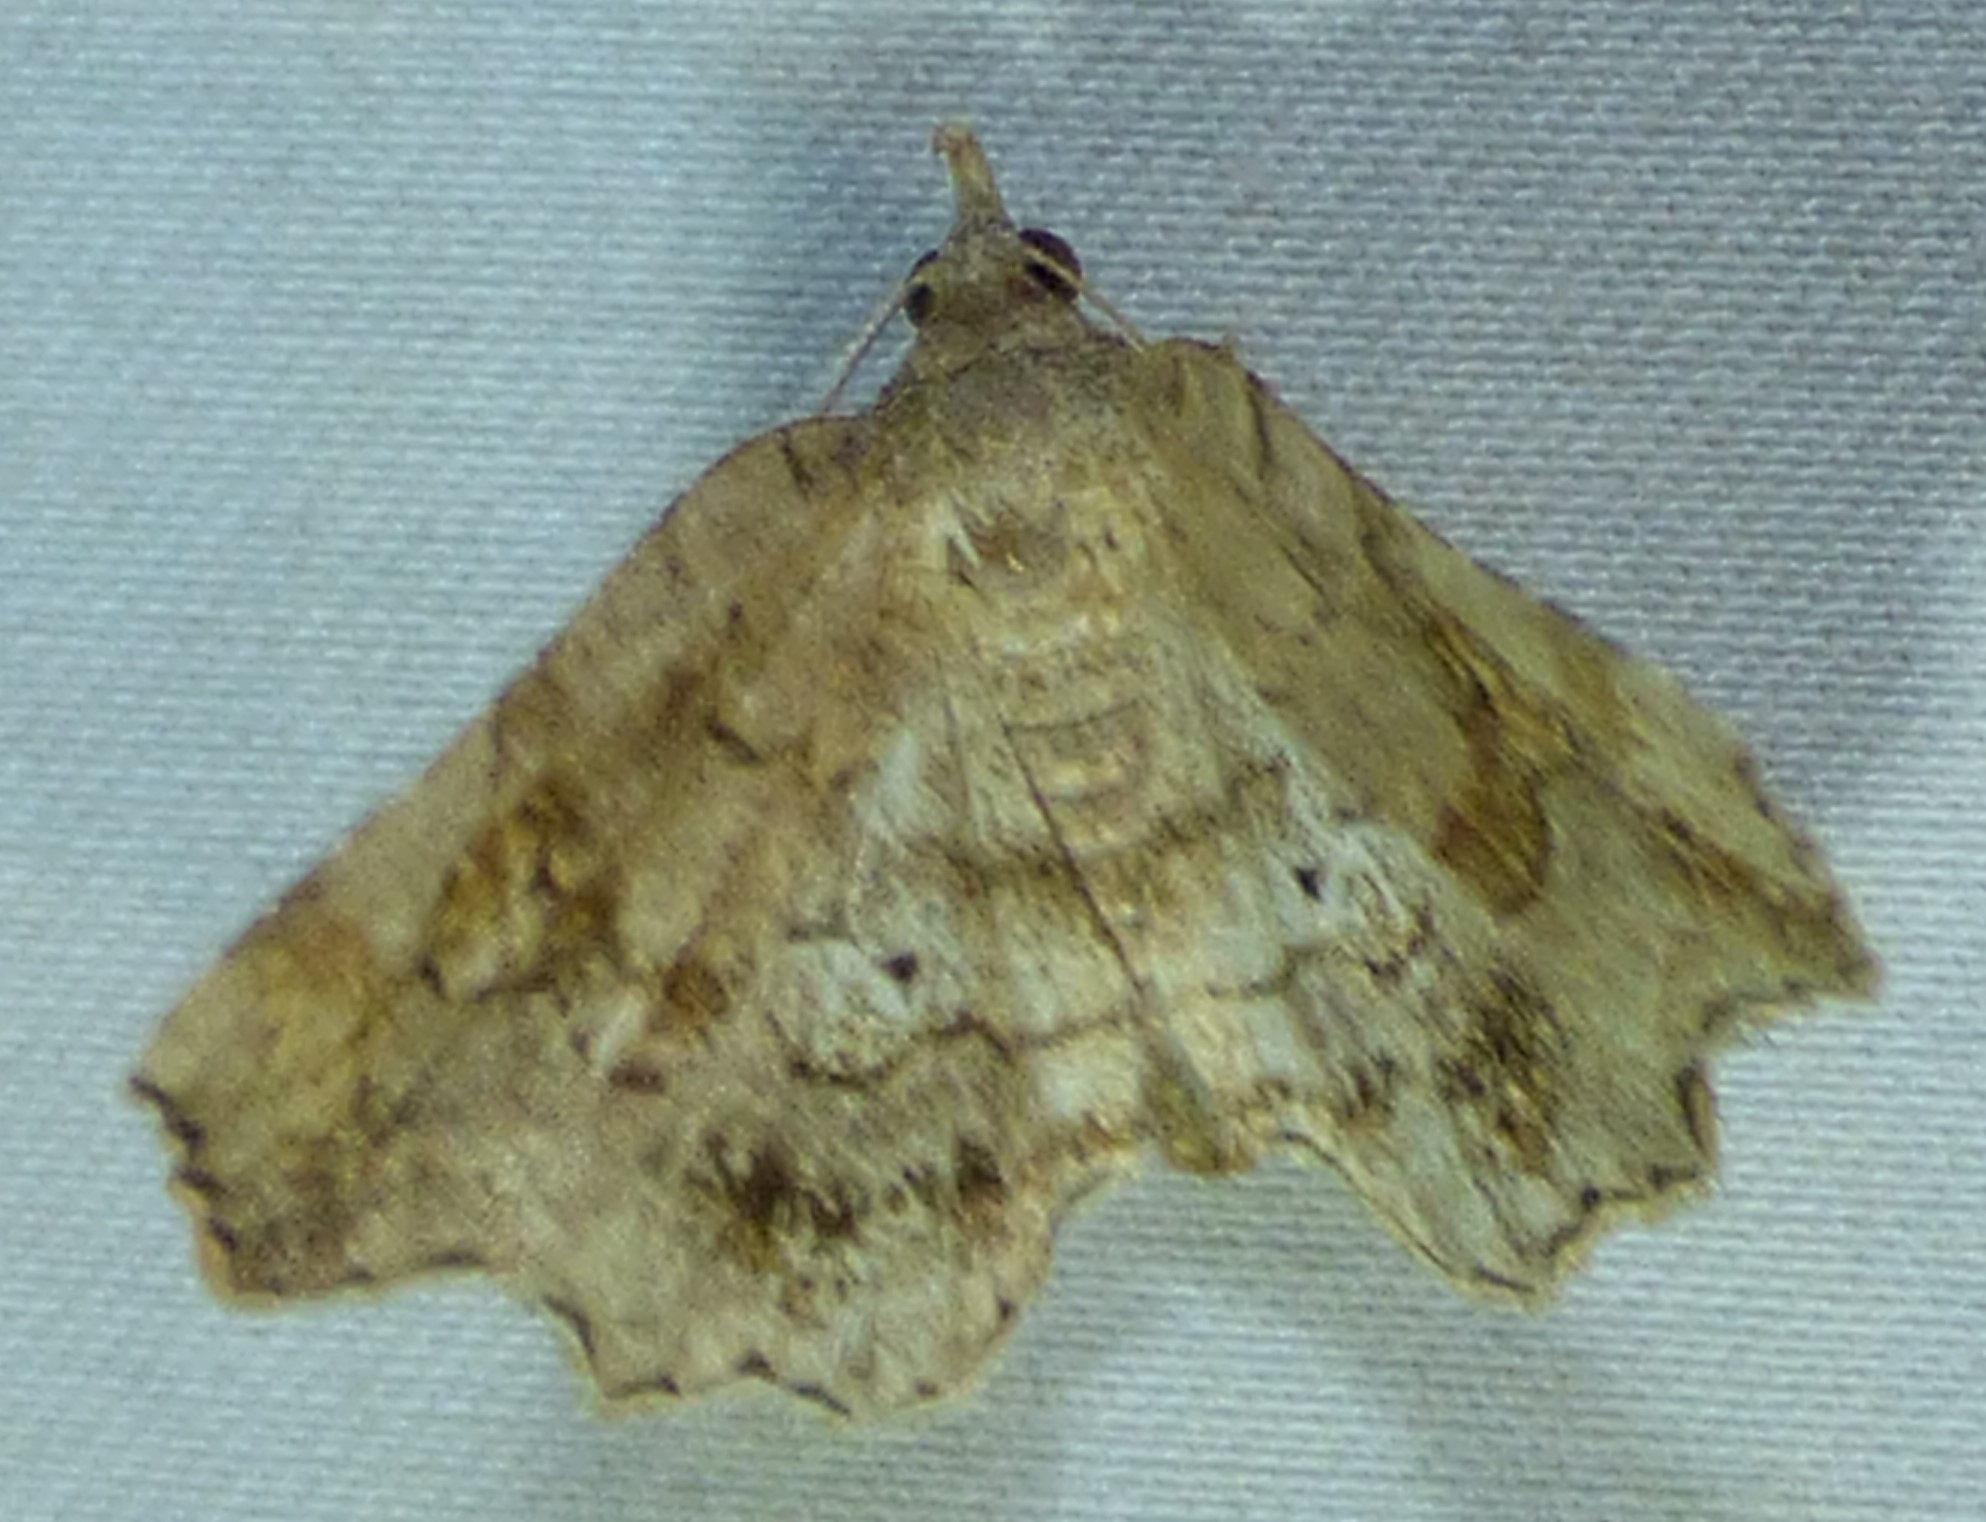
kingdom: Animalia
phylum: Arthropoda
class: Insecta
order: Lepidoptera
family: Erebidae
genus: Pangrapta
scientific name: Pangrapta decoralis
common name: Decorated owlet
